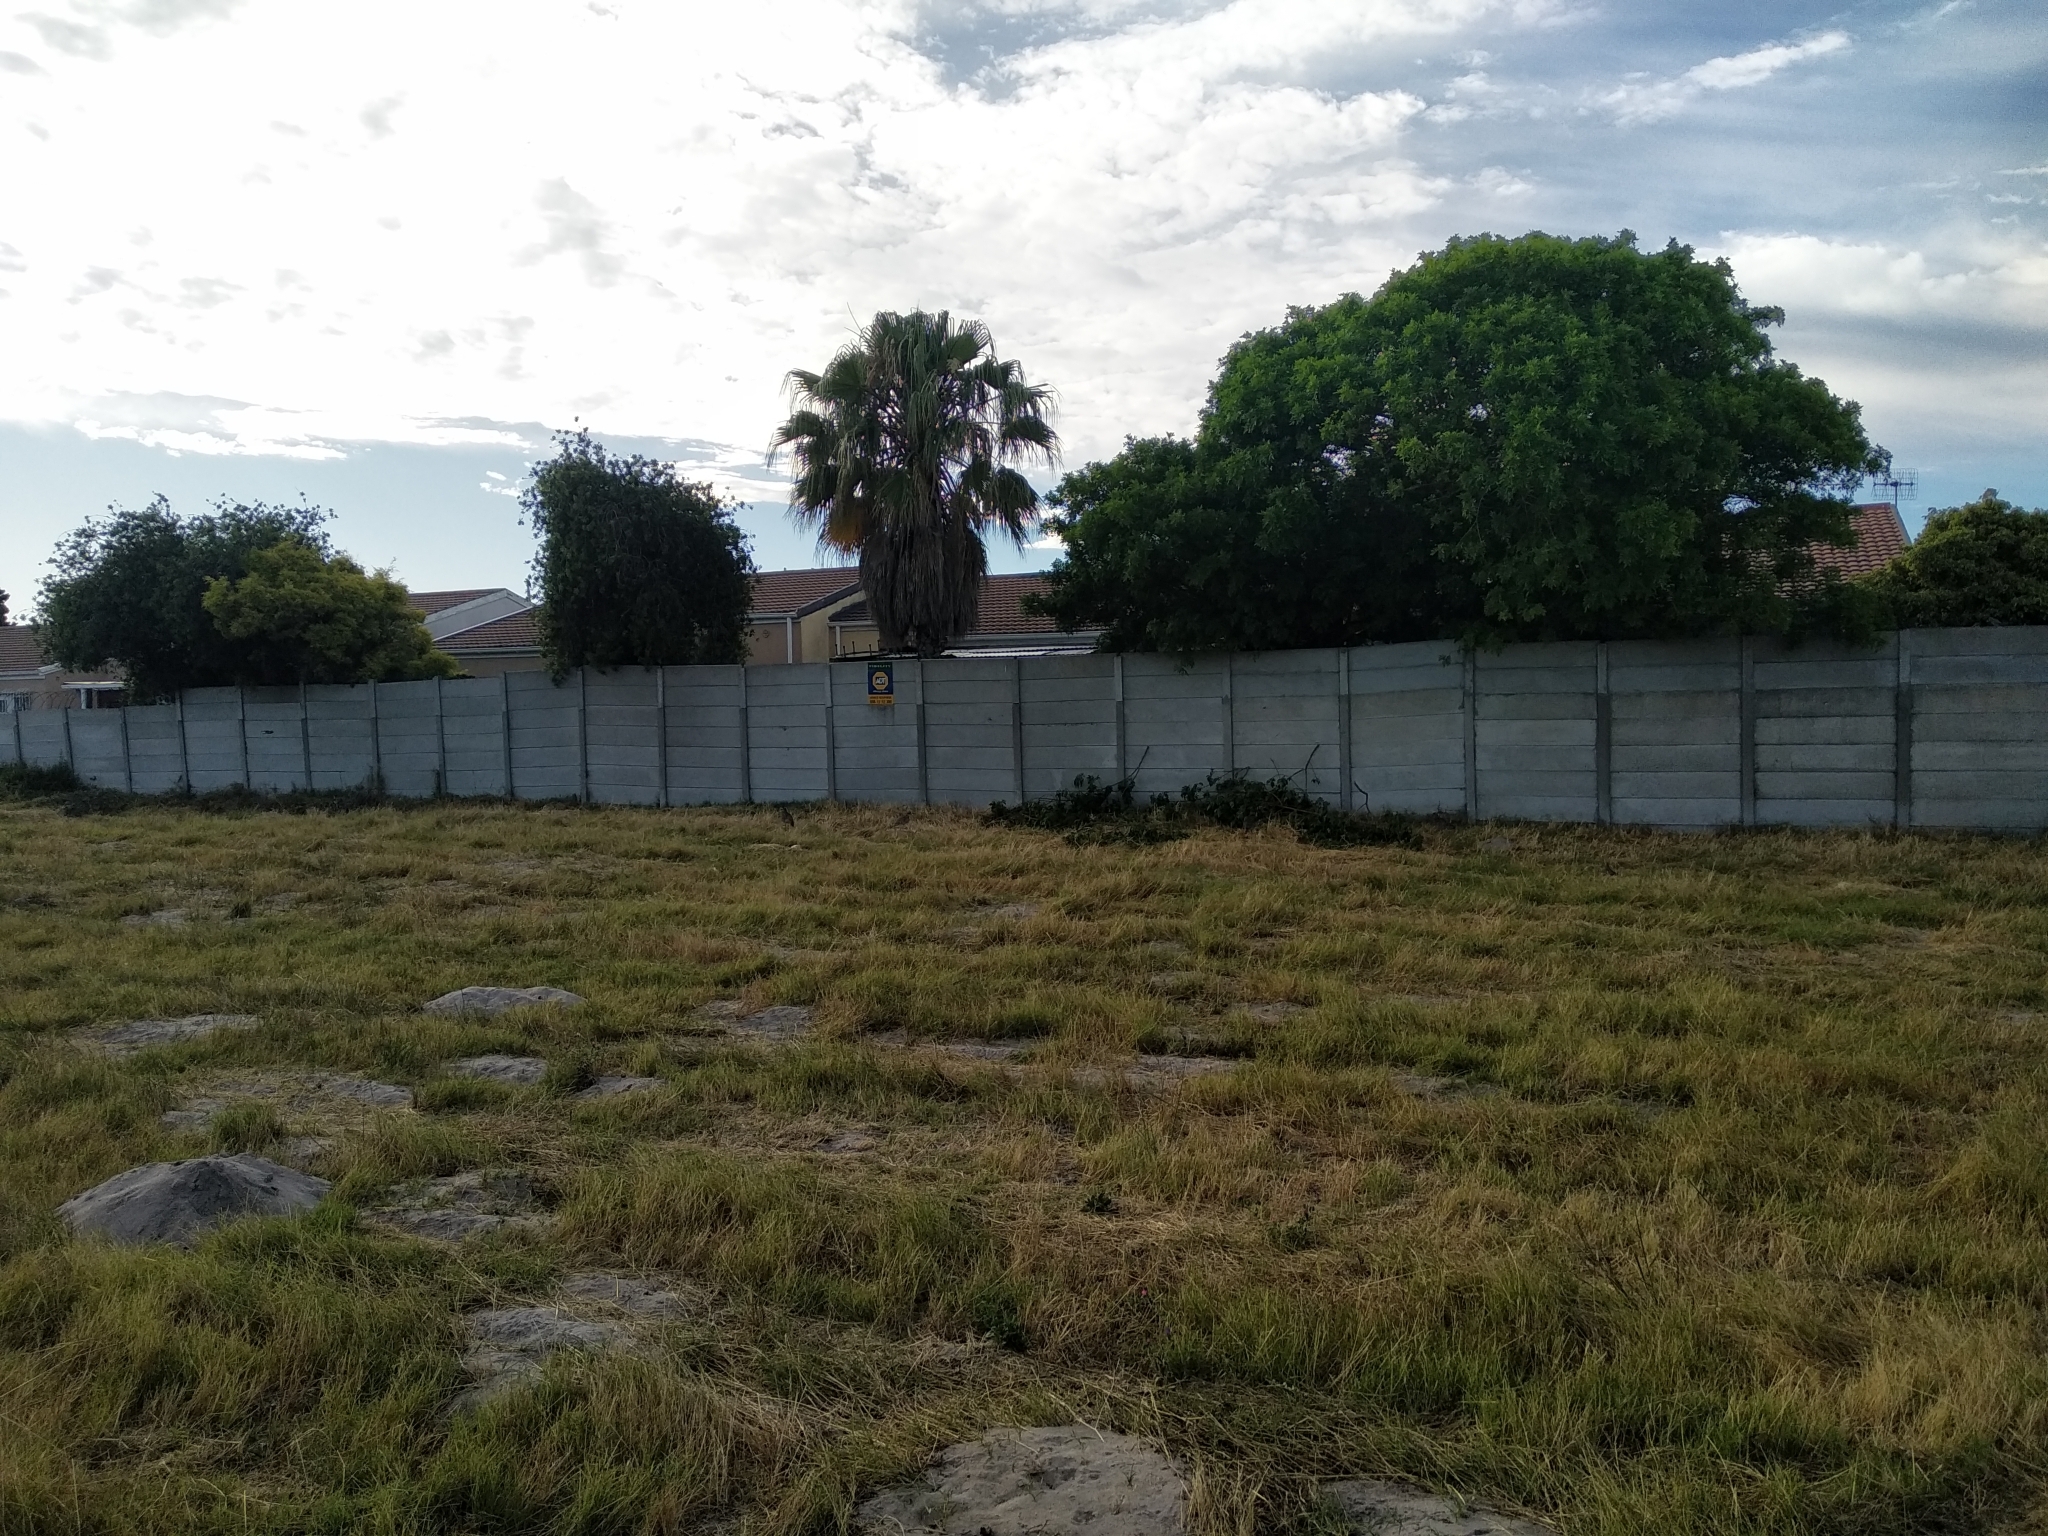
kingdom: Animalia
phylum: Chordata
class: Aves
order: Charadriiformes
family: Burhinidae
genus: Burhinus
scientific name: Burhinus capensis
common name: Spotted thick-knee
